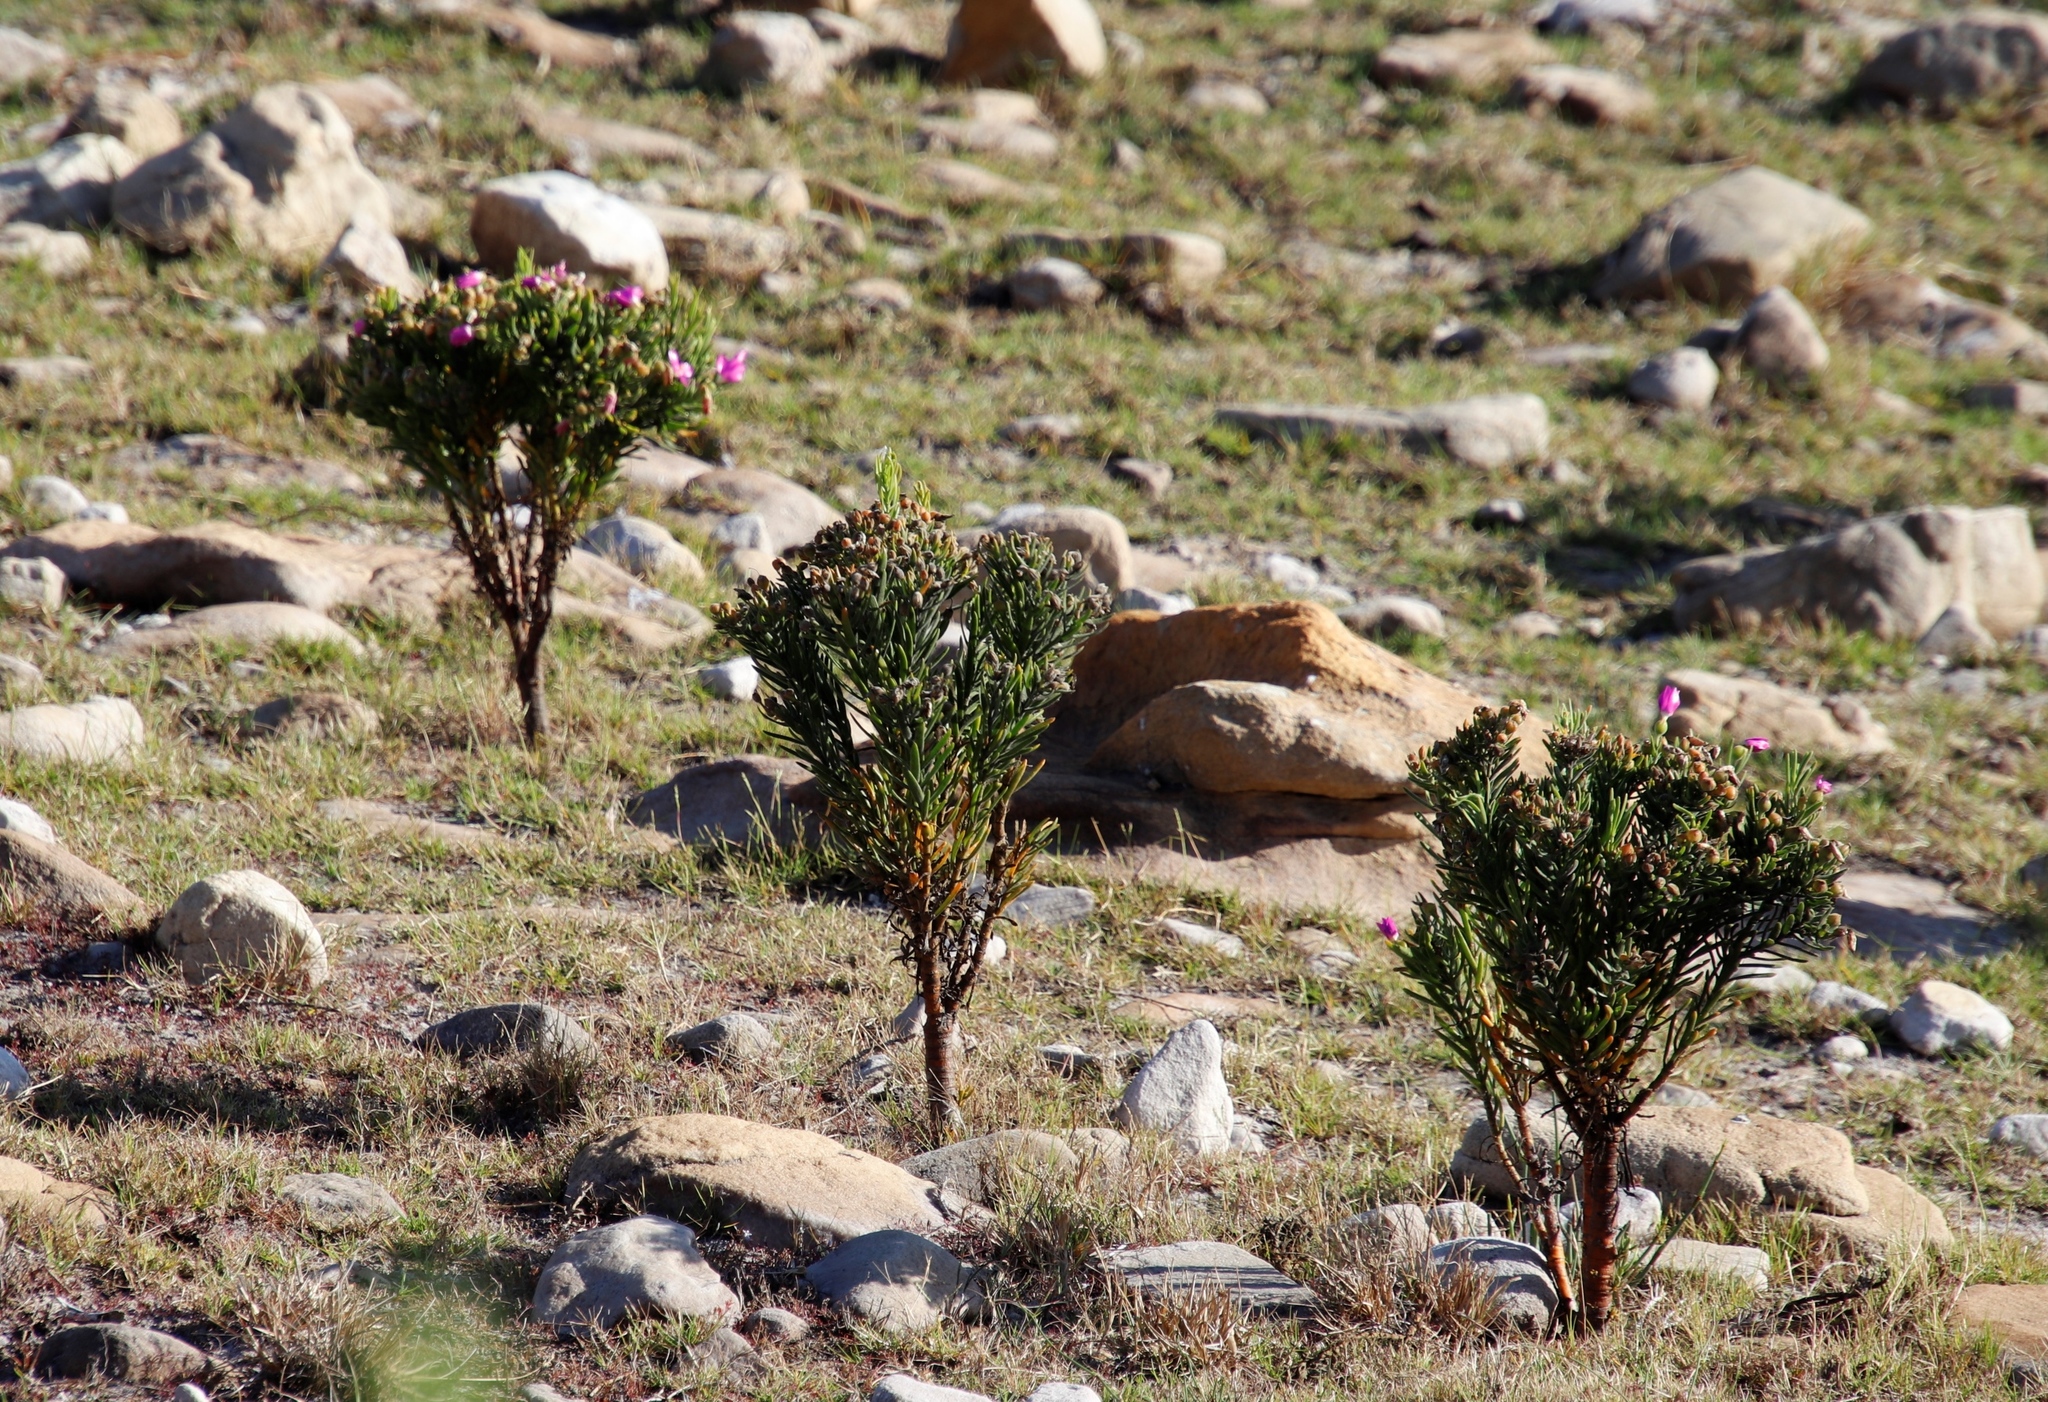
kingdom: Plantae
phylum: Tracheophyta
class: Magnoliopsida
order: Gentianales
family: Gentianaceae
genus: Orphium
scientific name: Orphium frutescens
